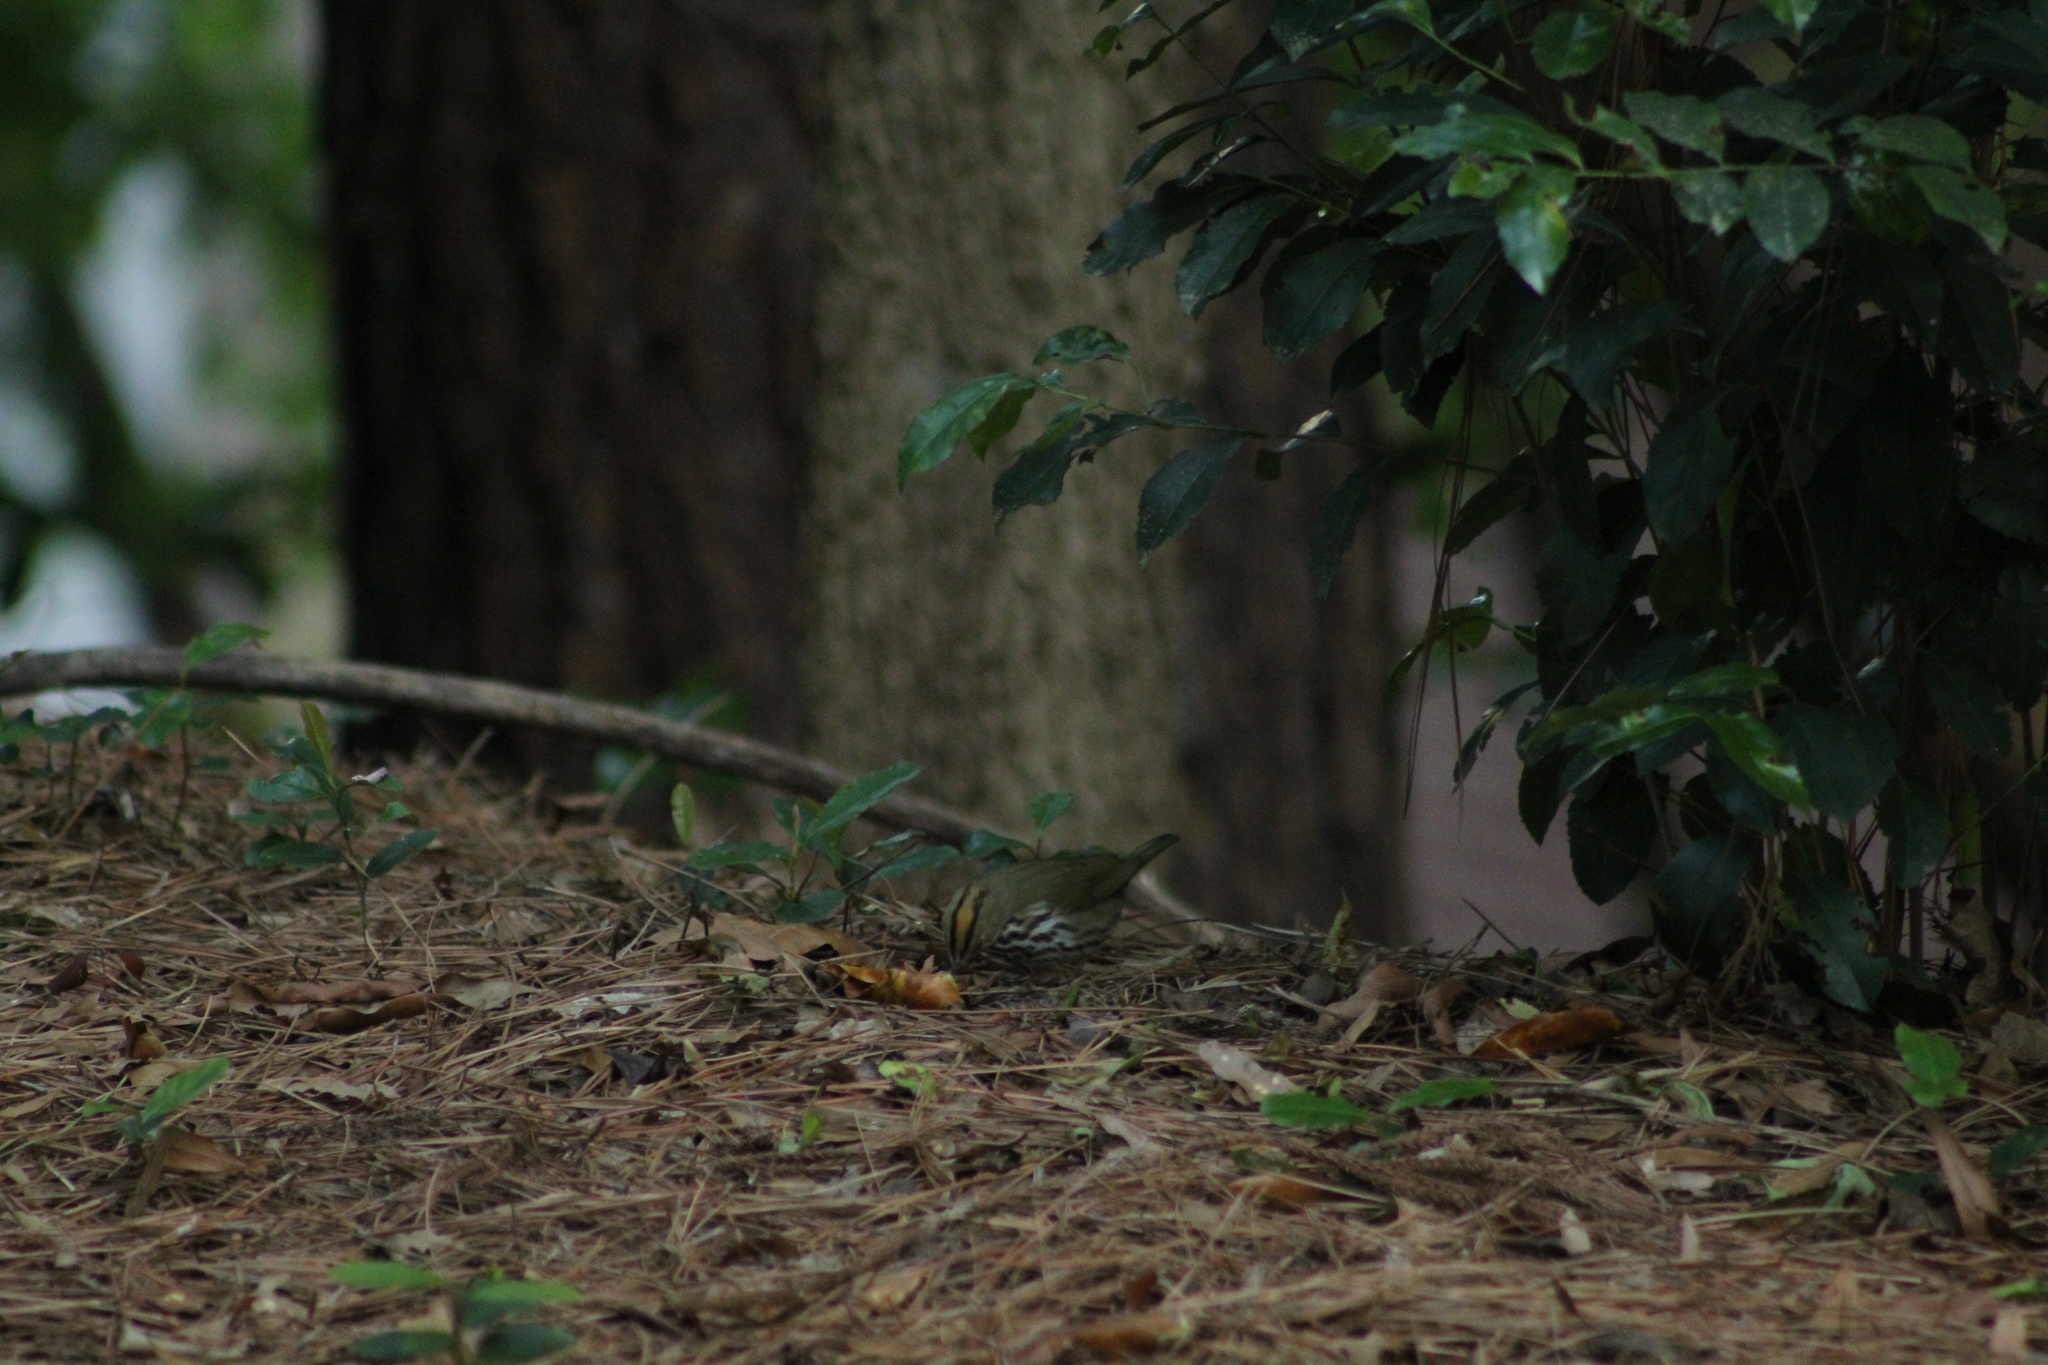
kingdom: Animalia
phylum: Chordata
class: Aves
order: Passeriformes
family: Parulidae
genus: Seiurus
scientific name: Seiurus aurocapilla
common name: Ovenbird
